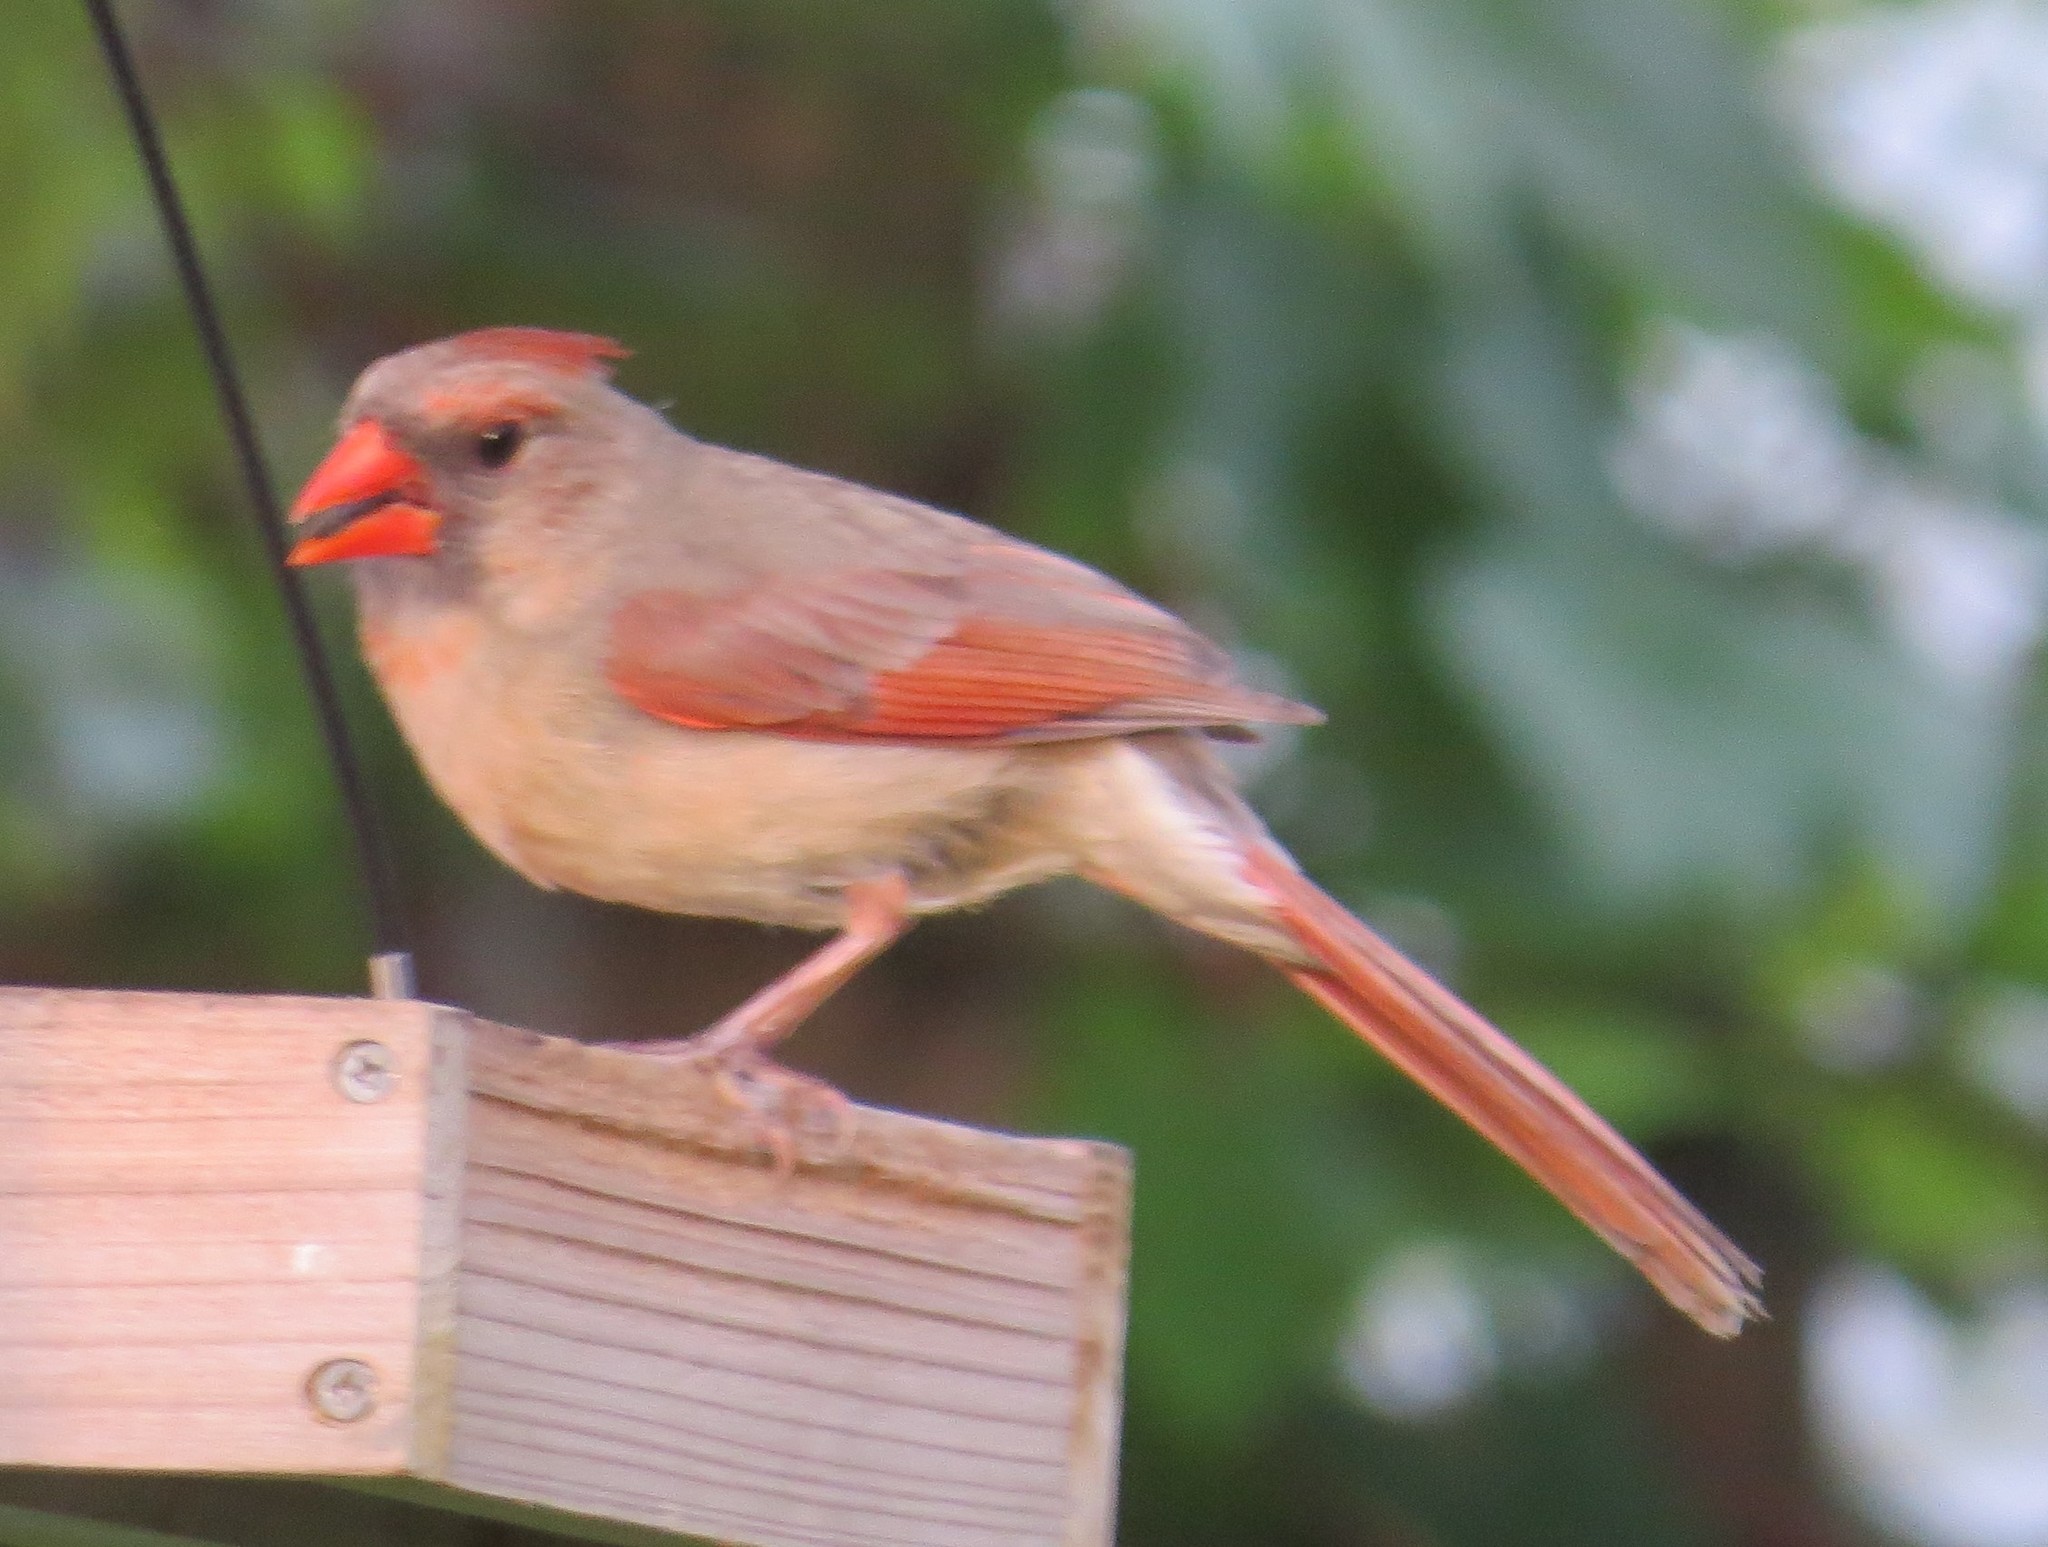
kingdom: Animalia
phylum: Chordata
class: Aves
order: Passeriformes
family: Cardinalidae
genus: Cardinalis
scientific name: Cardinalis cardinalis
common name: Northern cardinal
